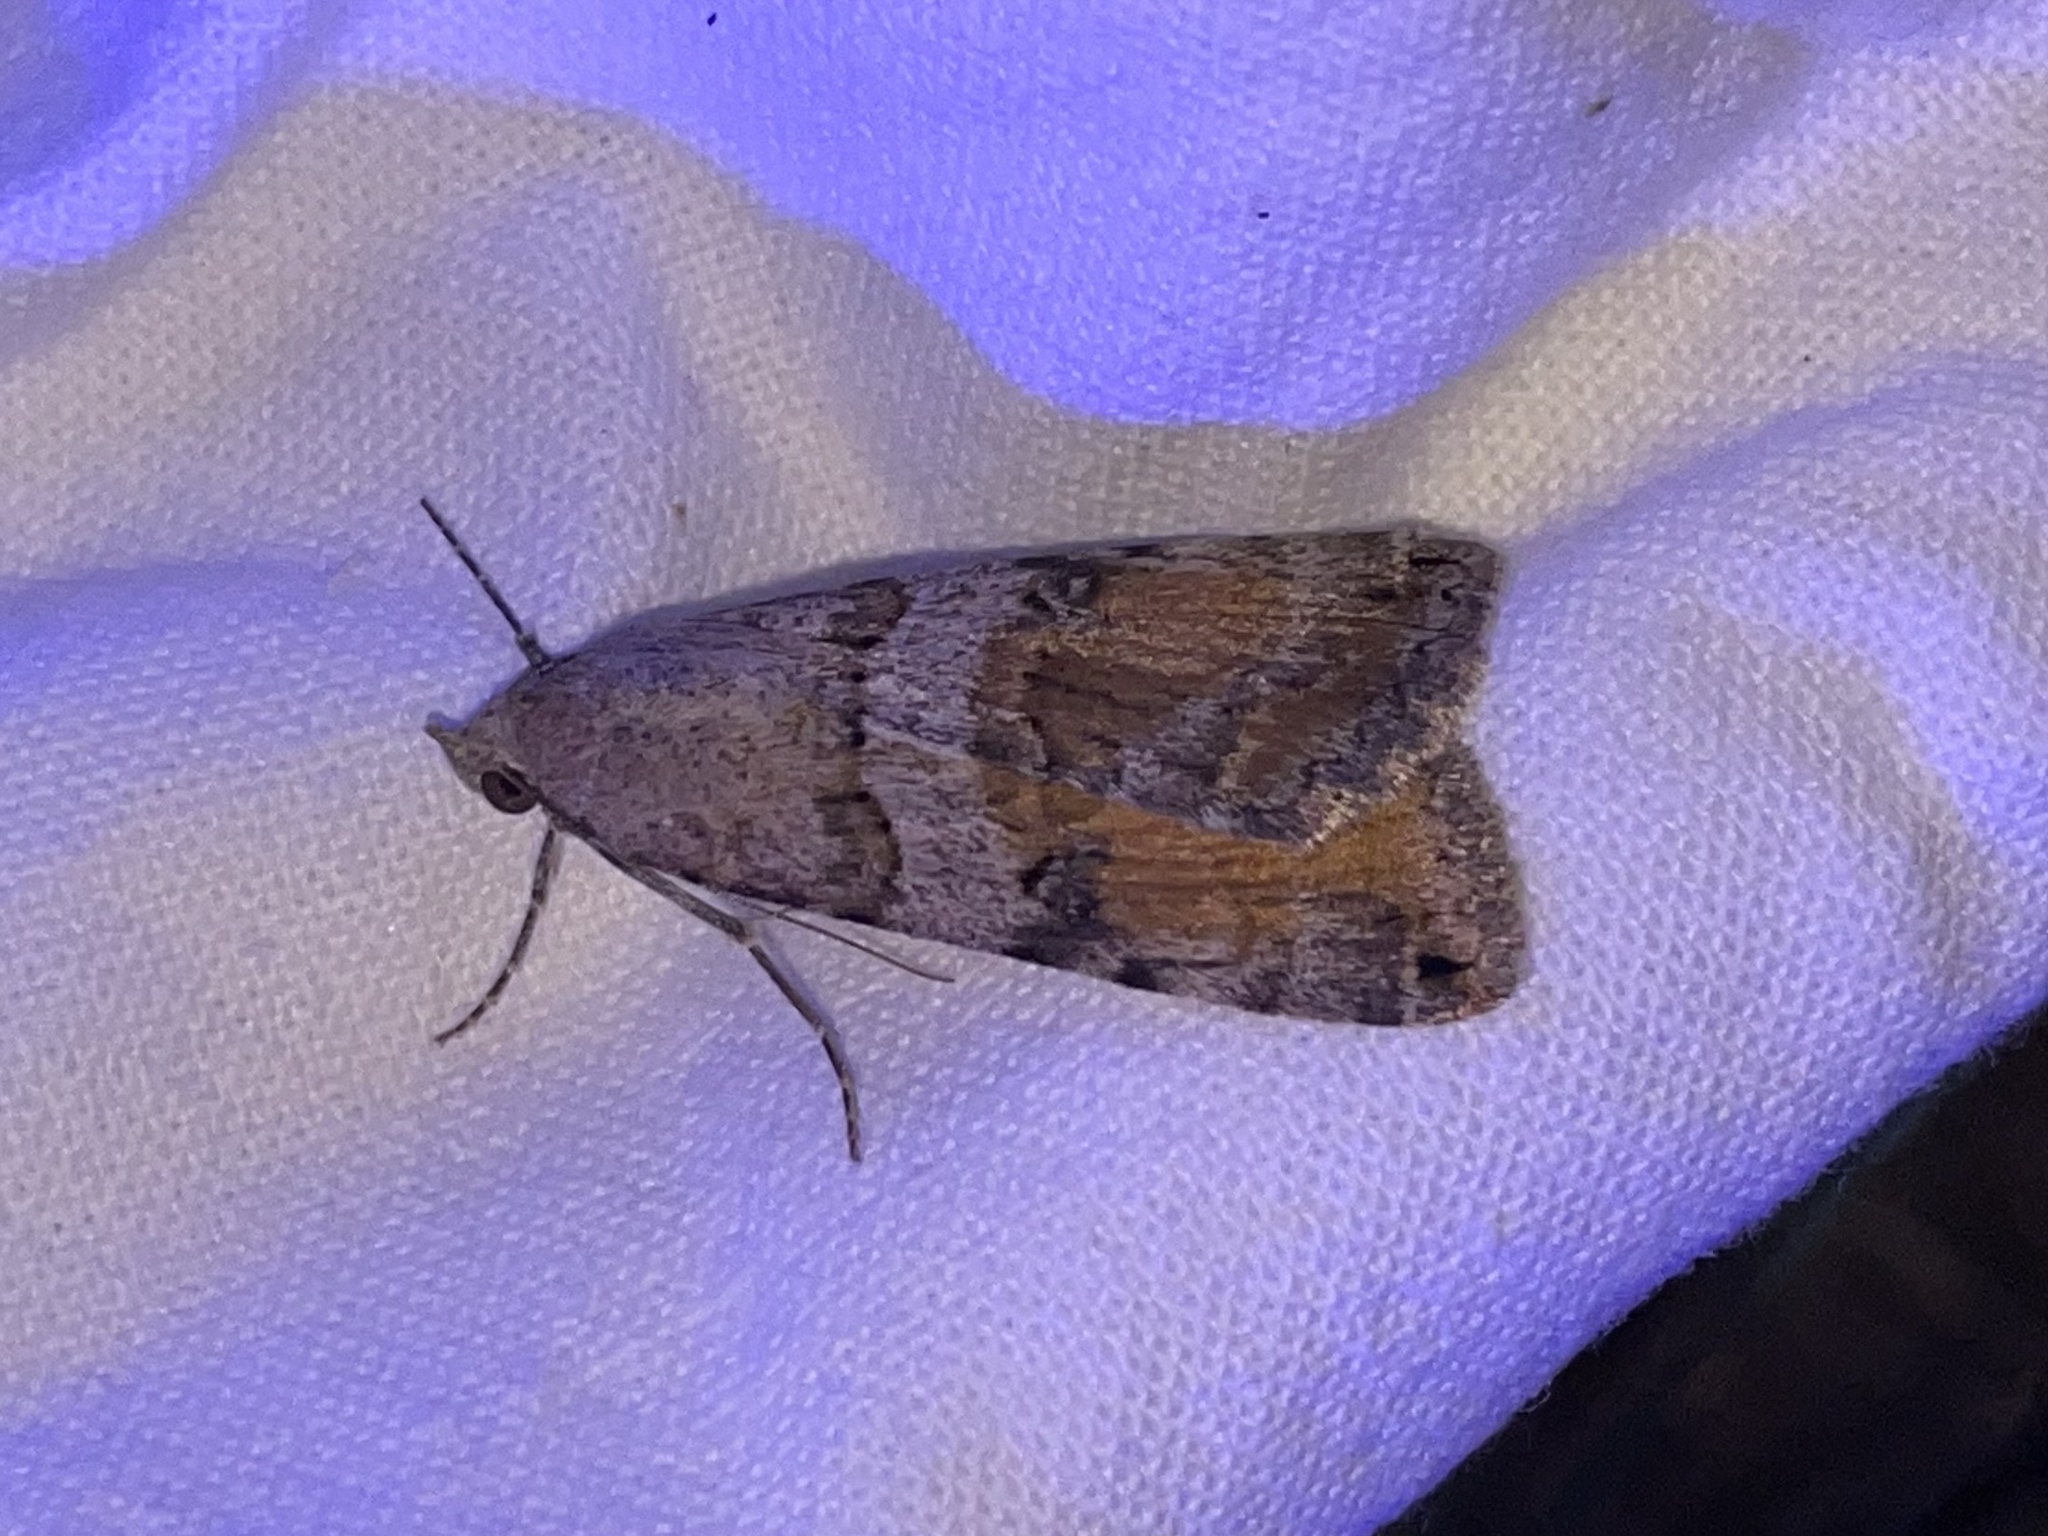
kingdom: Animalia
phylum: Arthropoda
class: Insecta
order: Lepidoptera
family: Erebidae
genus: Bulia
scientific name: Bulia deducta
